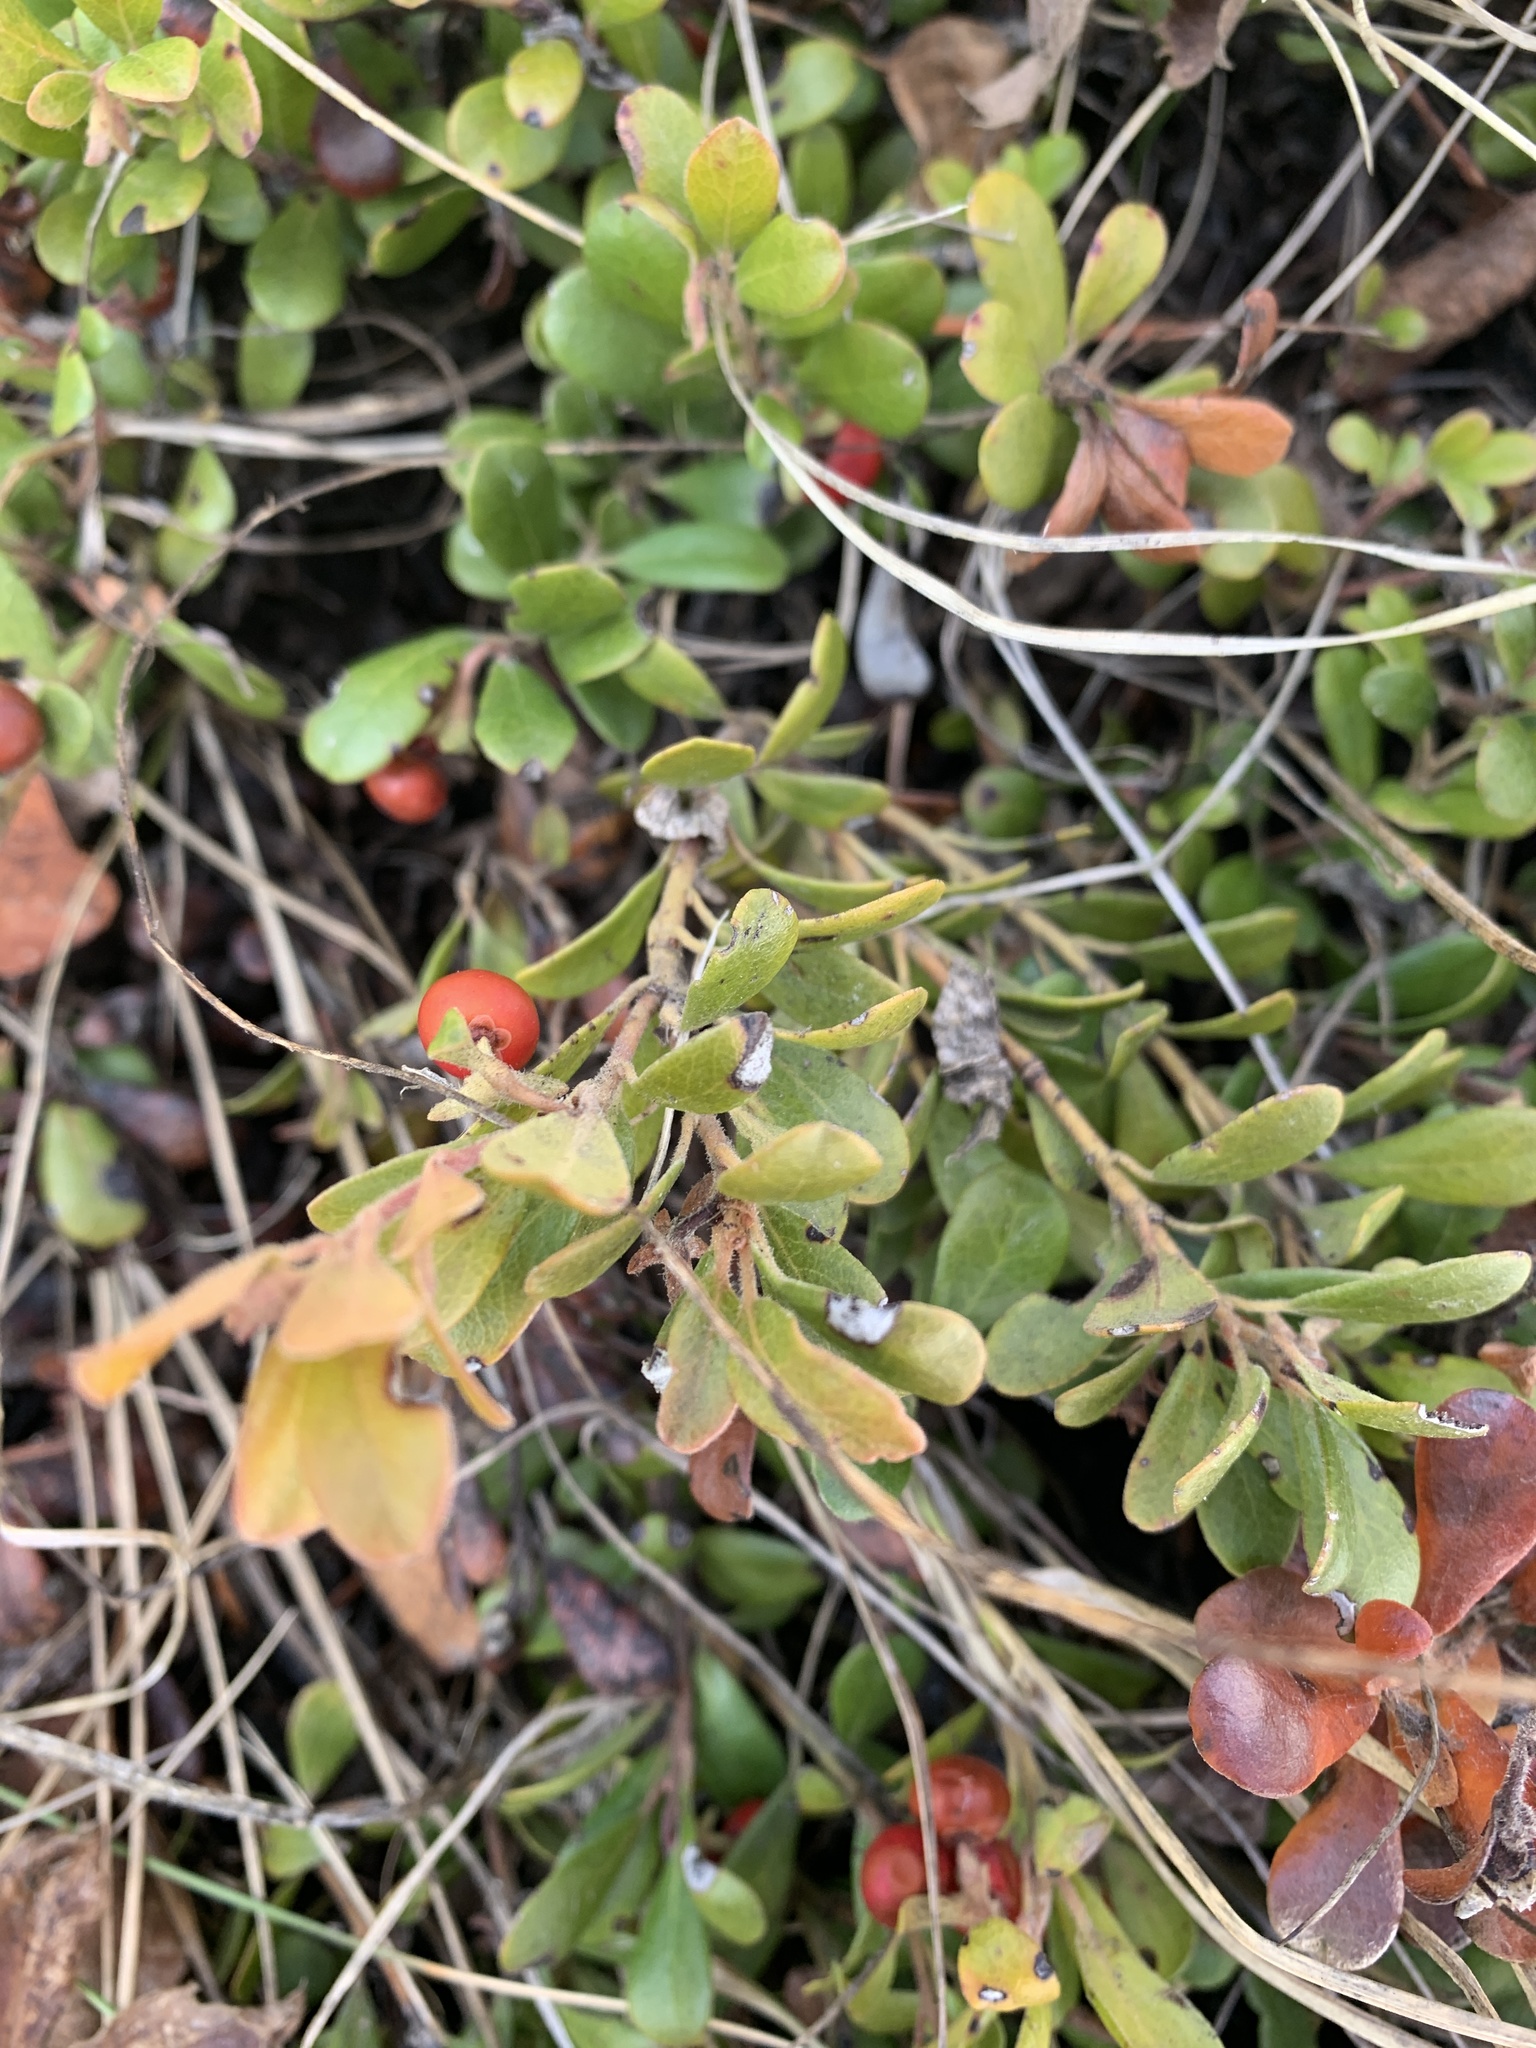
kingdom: Plantae
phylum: Tracheophyta
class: Magnoliopsida
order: Ericales
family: Ericaceae
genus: Arctostaphylos
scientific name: Arctostaphylos uva-ursi
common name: Bearberry
